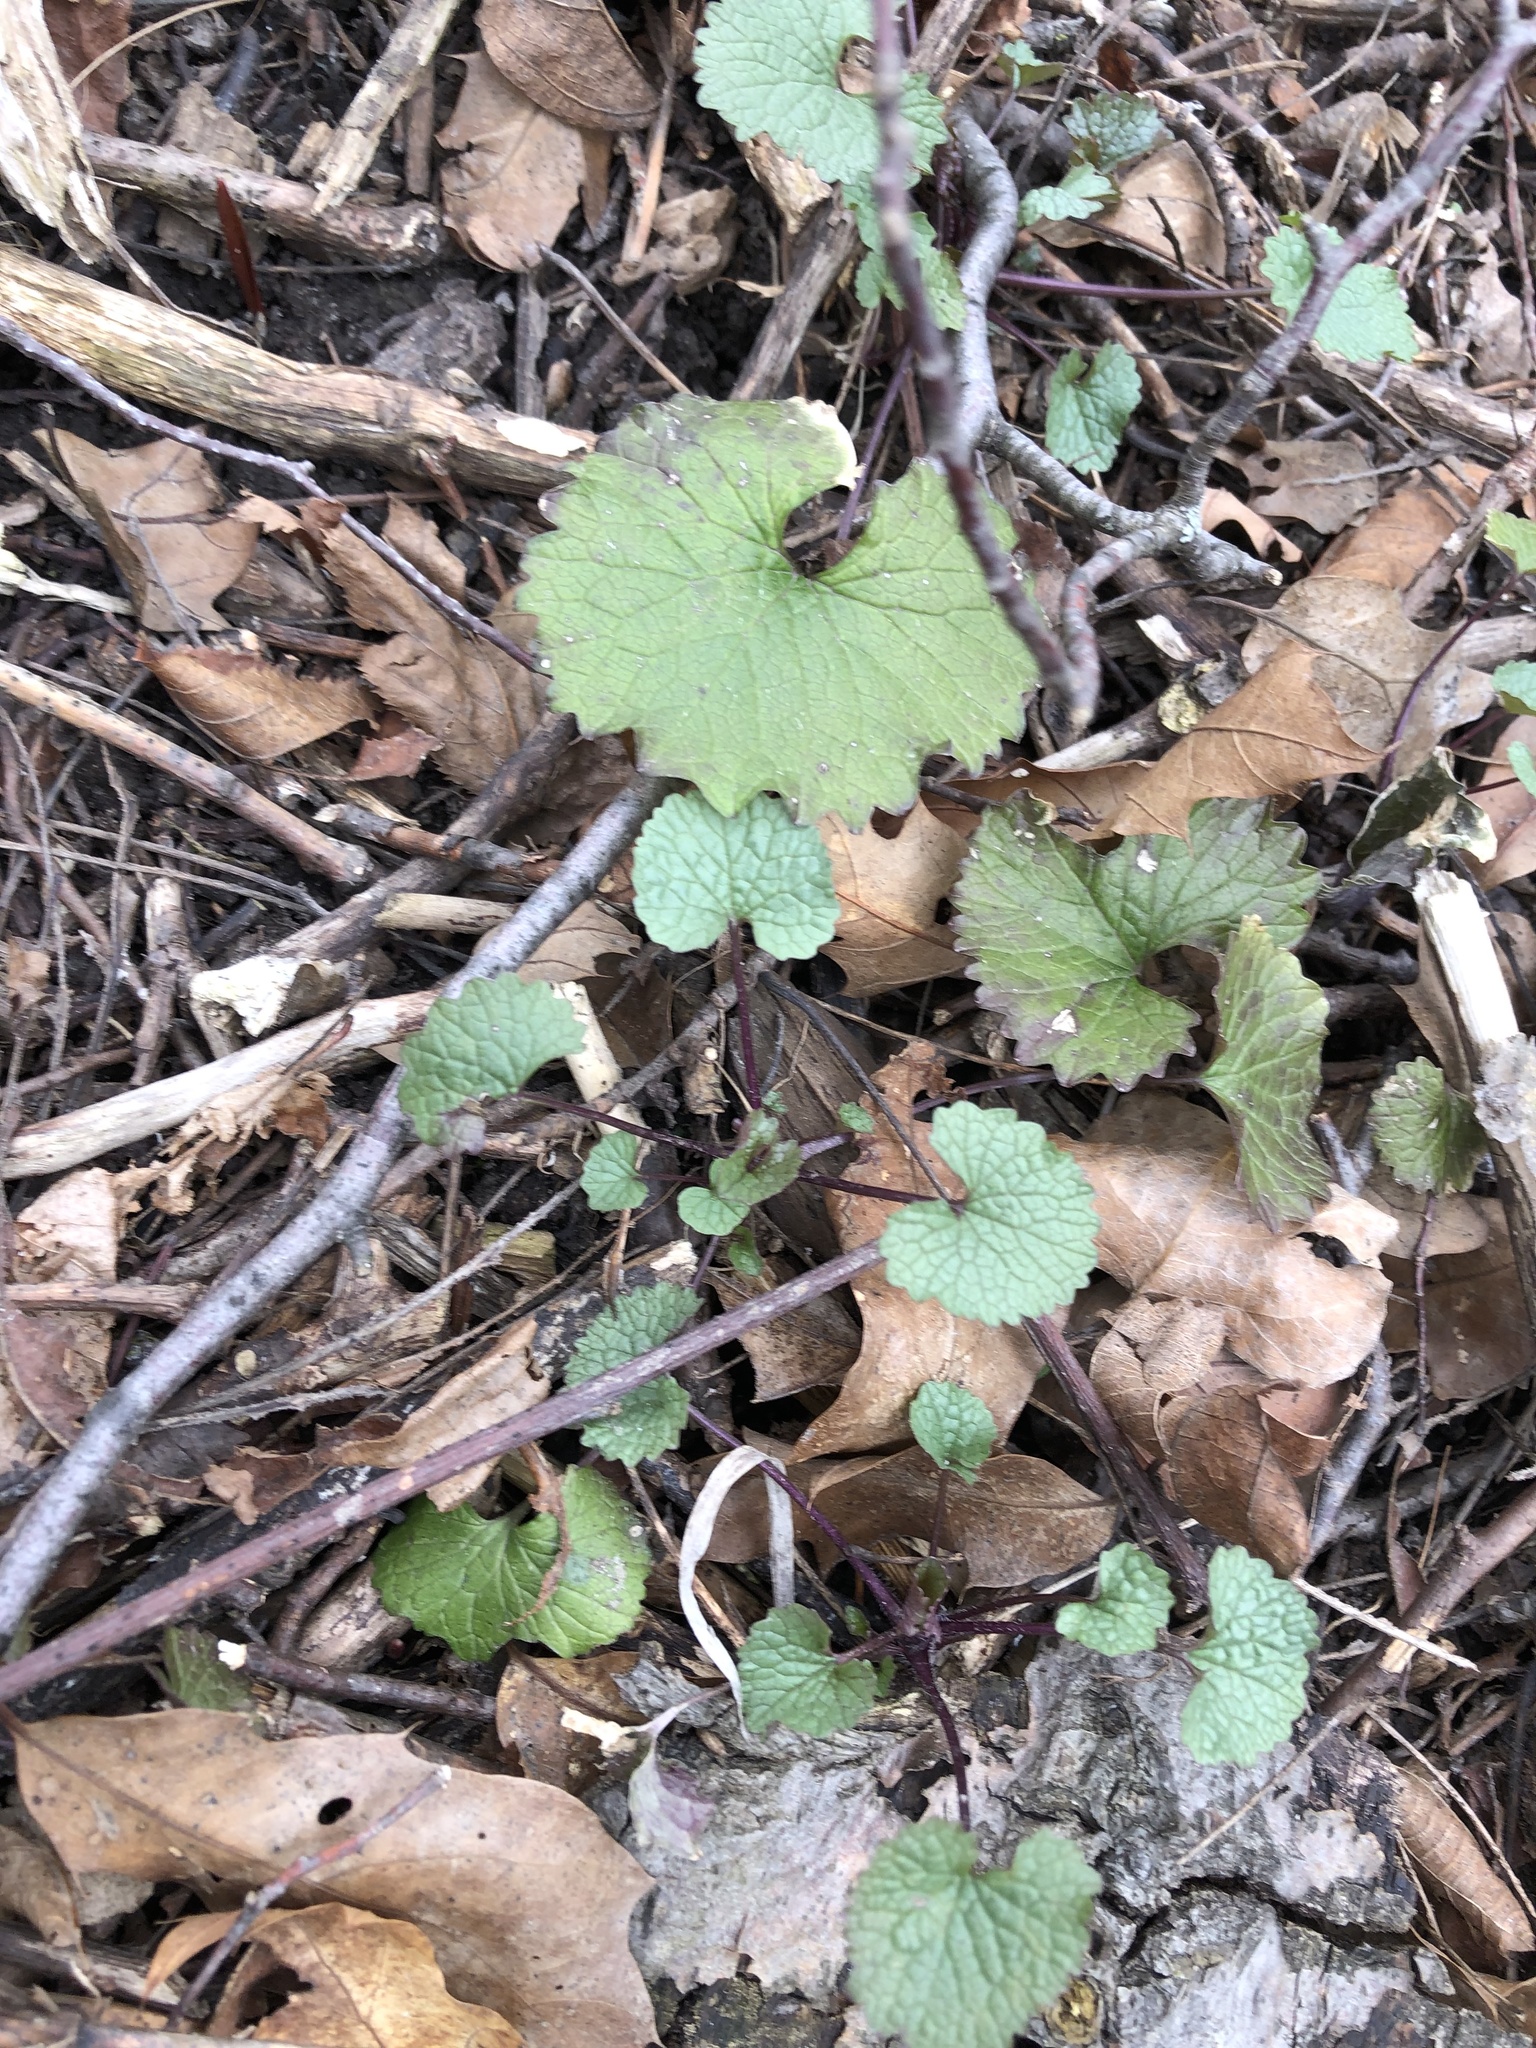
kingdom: Plantae
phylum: Tracheophyta
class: Magnoliopsida
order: Brassicales
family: Brassicaceae
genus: Alliaria
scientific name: Alliaria petiolata
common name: Garlic mustard
